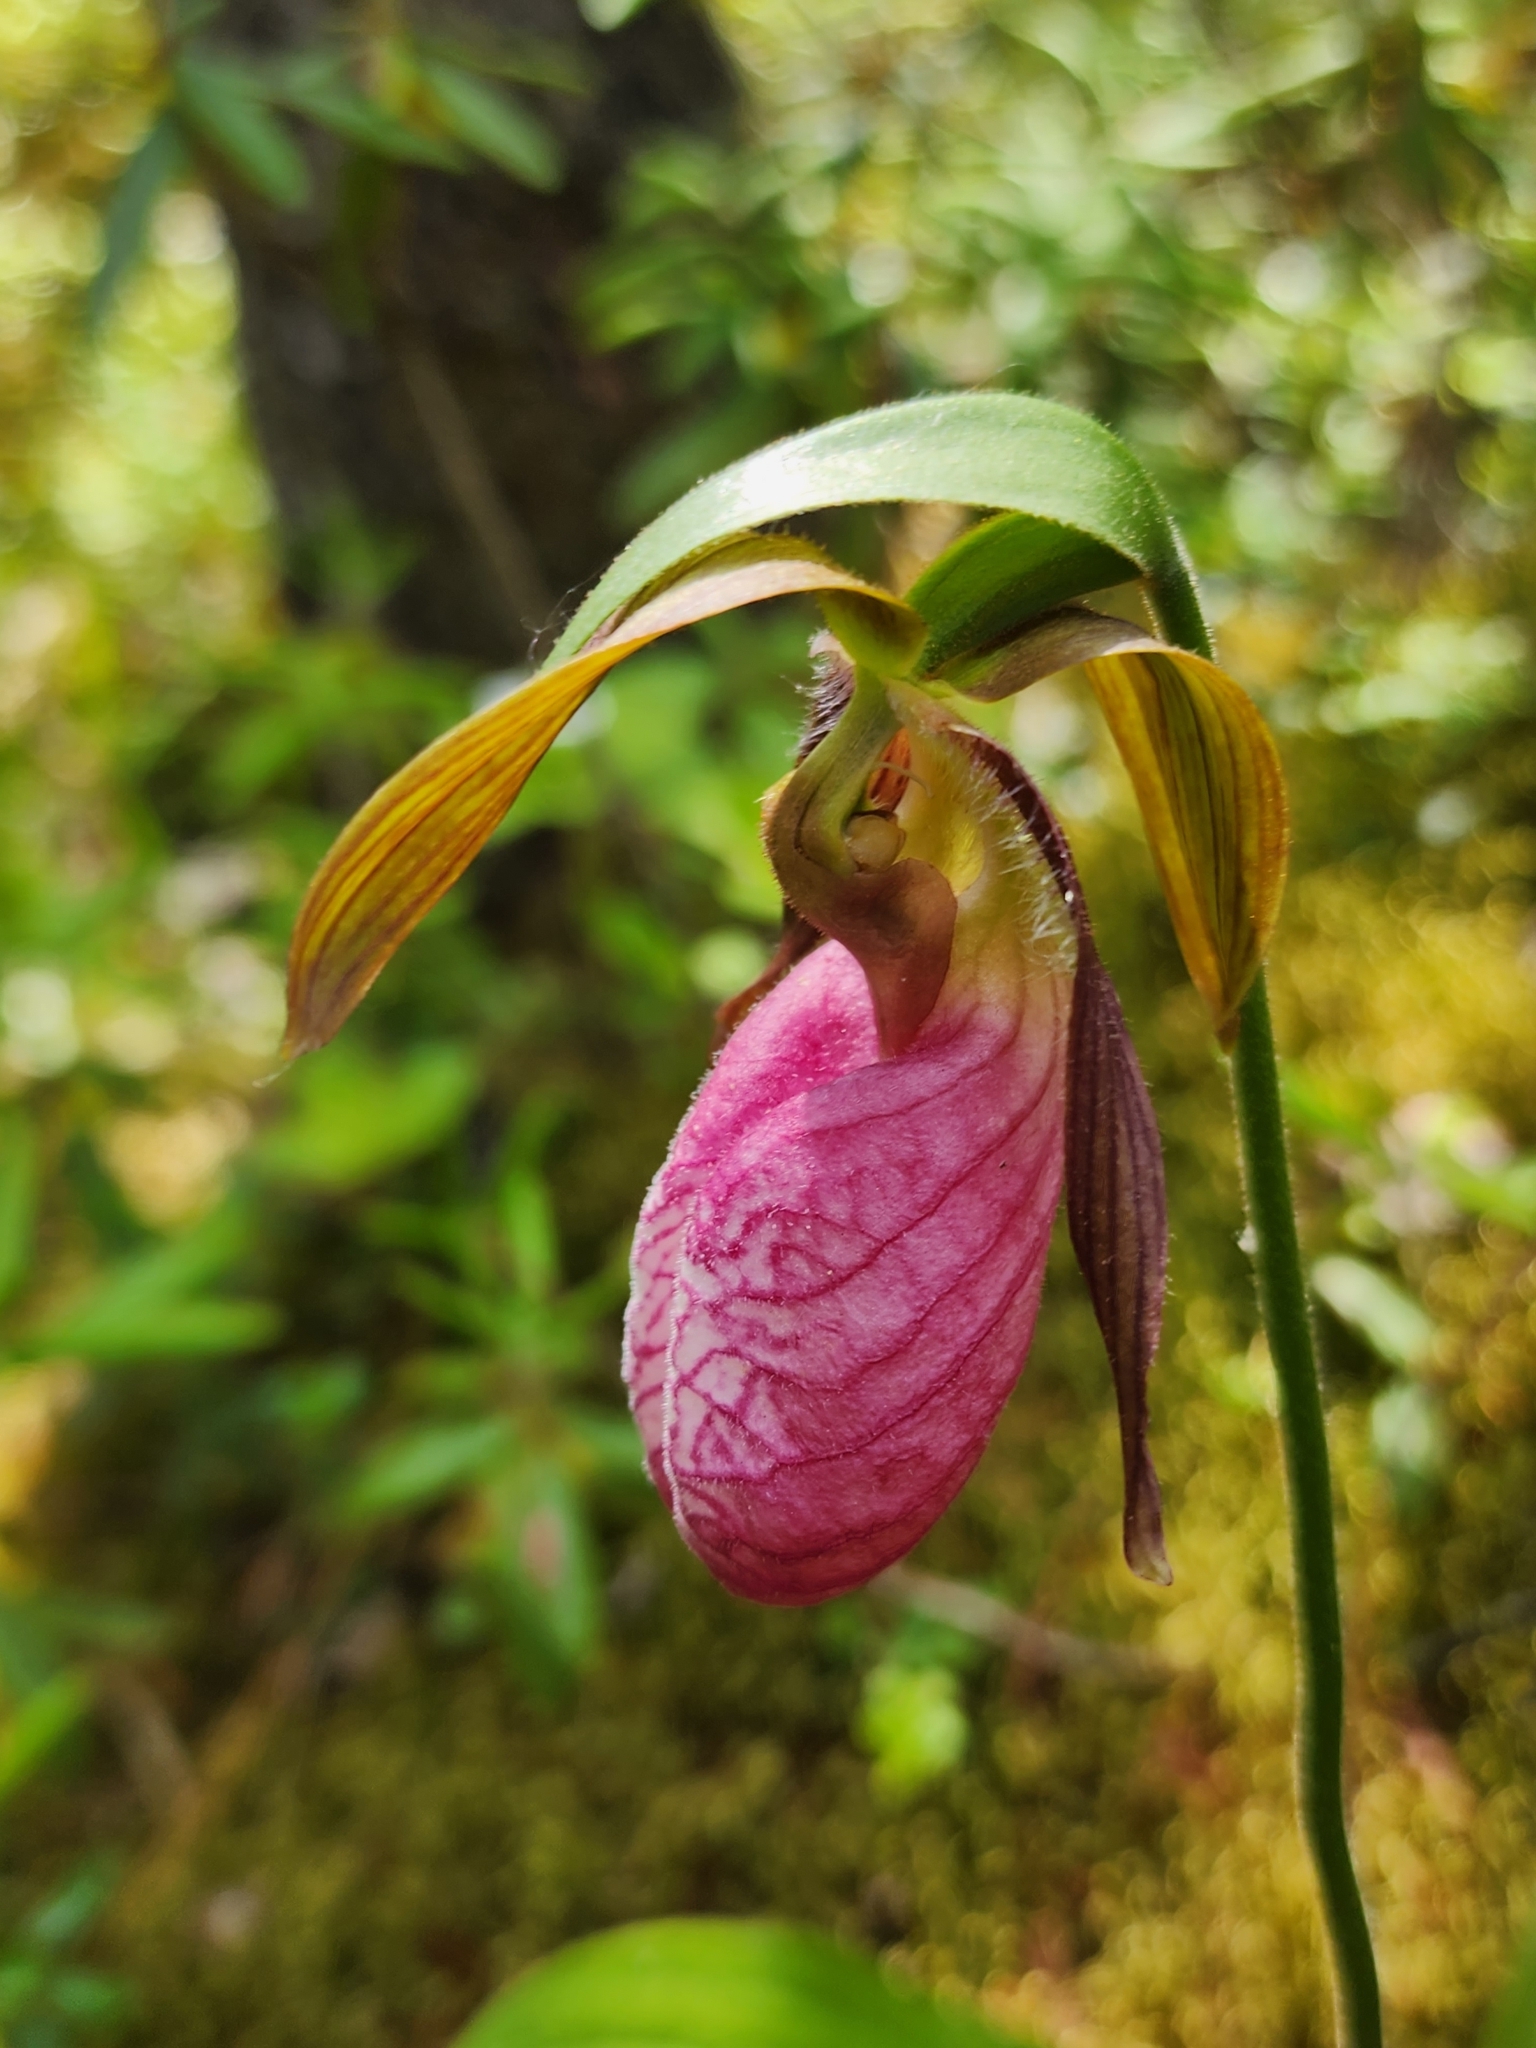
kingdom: Plantae
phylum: Tracheophyta
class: Liliopsida
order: Asparagales
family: Orchidaceae
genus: Cypripedium
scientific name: Cypripedium acaule
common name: Pink lady's-slipper
